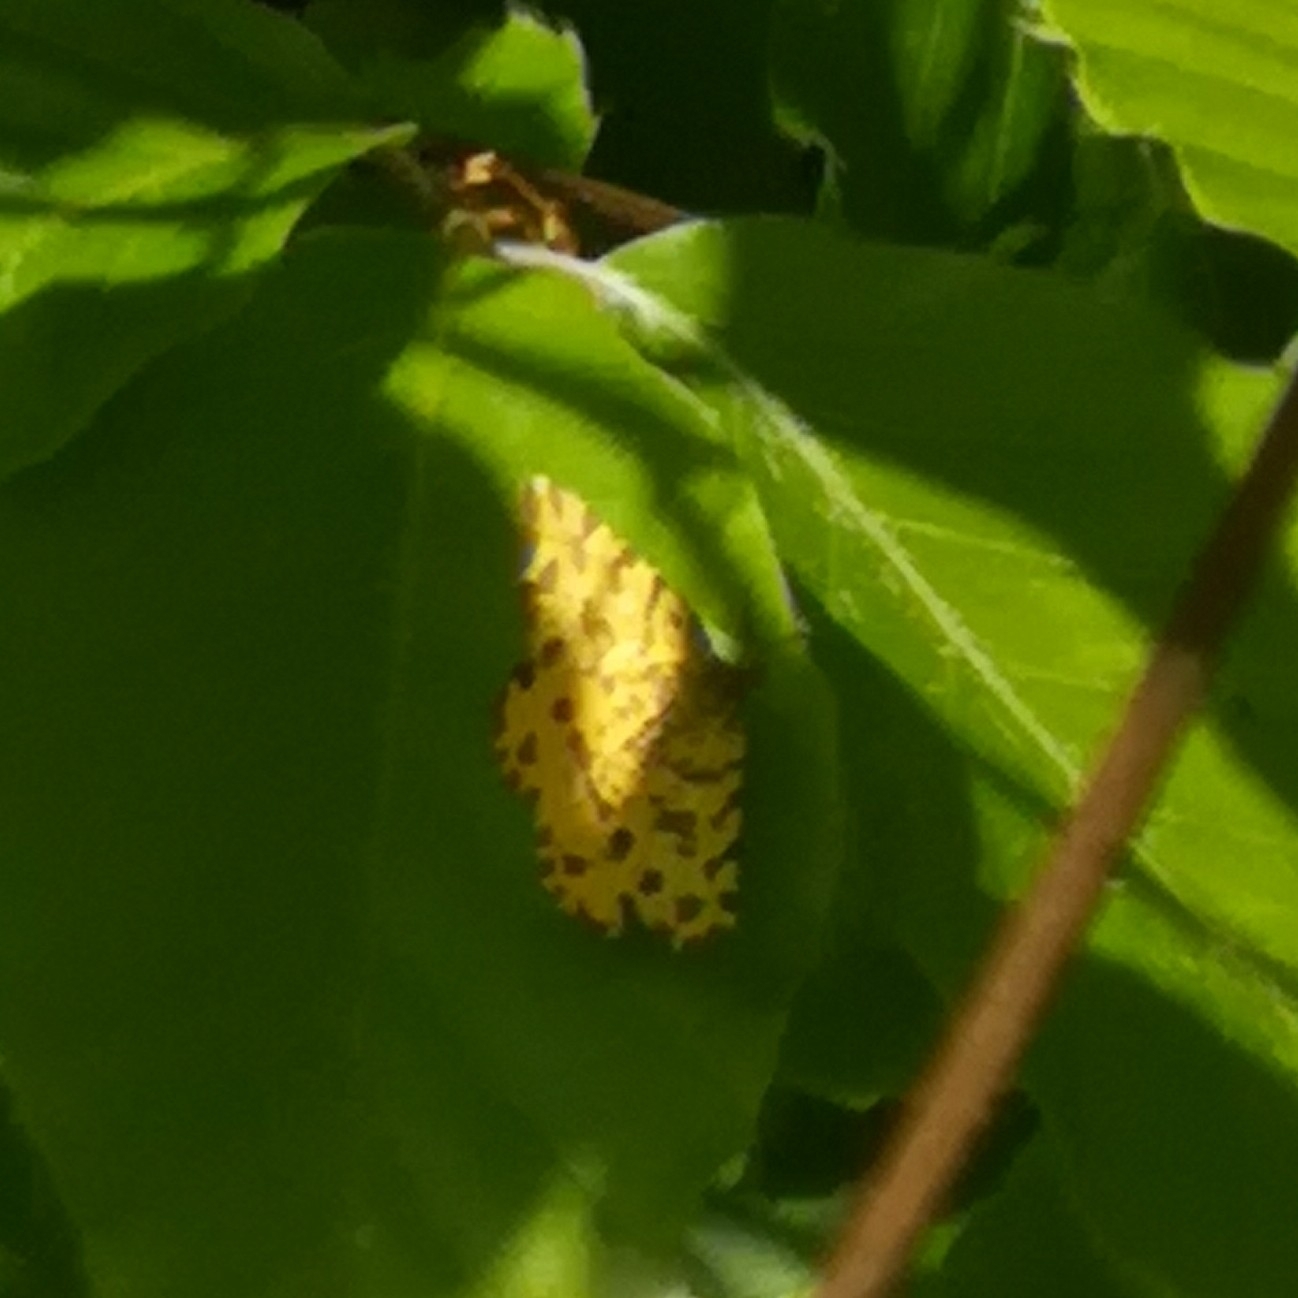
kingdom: Animalia
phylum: Arthropoda
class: Insecta
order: Lepidoptera
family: Geometridae
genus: Pseudopanthera
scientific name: Pseudopanthera macularia
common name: Speckled yellow
